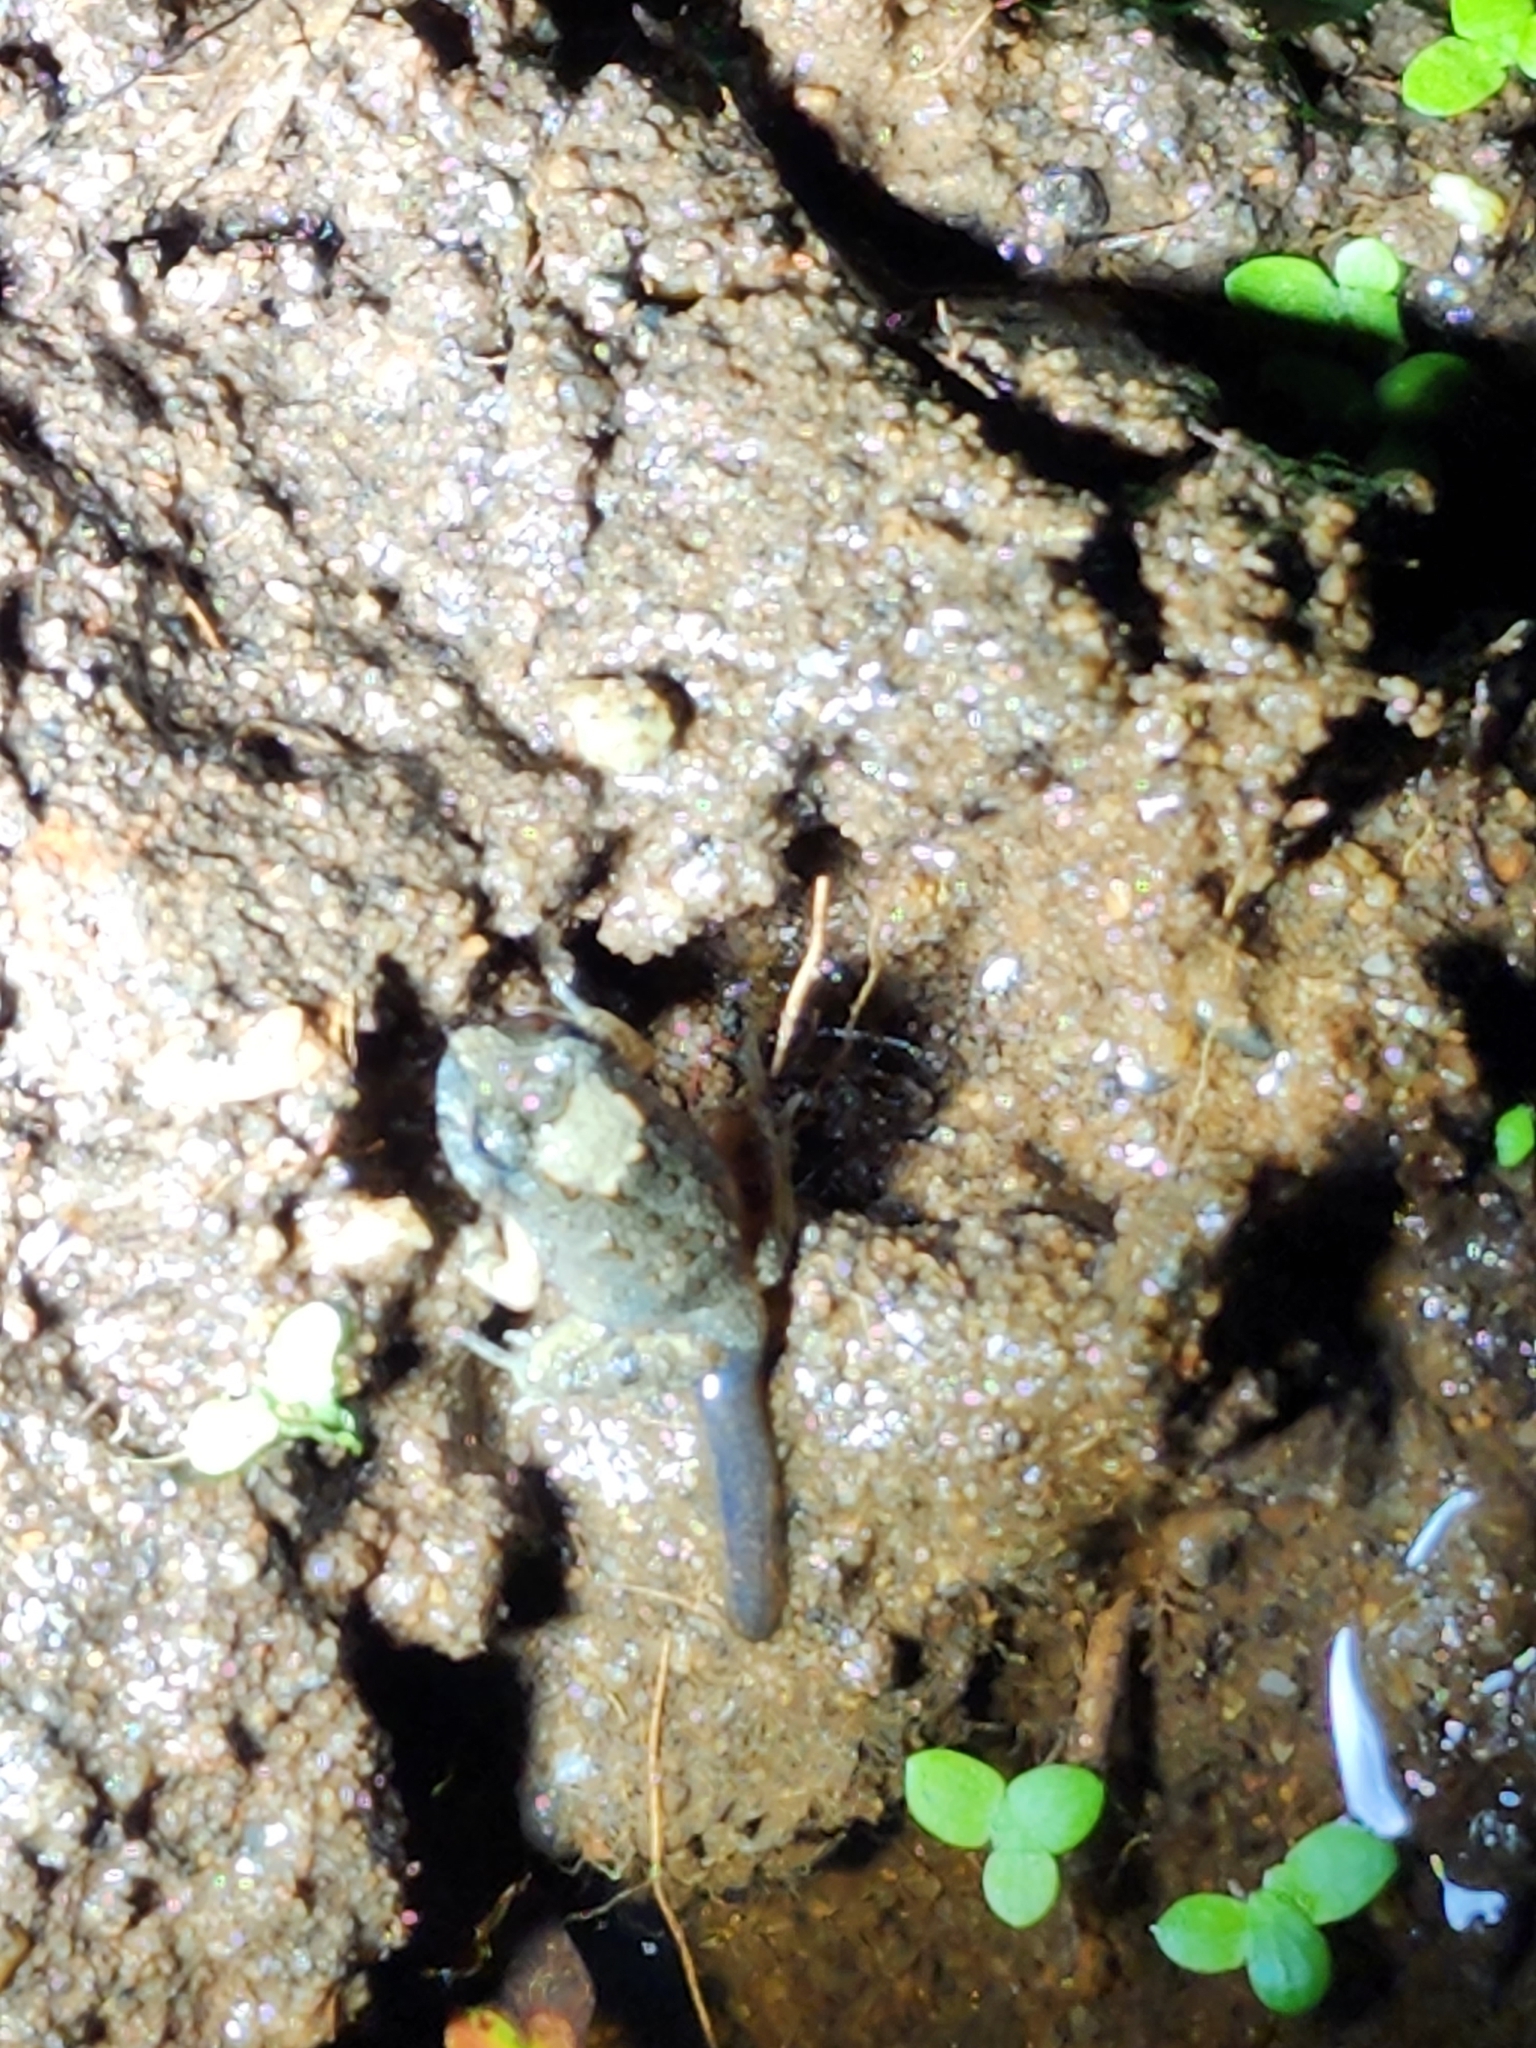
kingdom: Animalia
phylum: Chordata
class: Amphibia
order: Anura
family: Limnodynastidae
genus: Platyplectrum
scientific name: Platyplectrum ornatum
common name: Ornate burrowing frog
